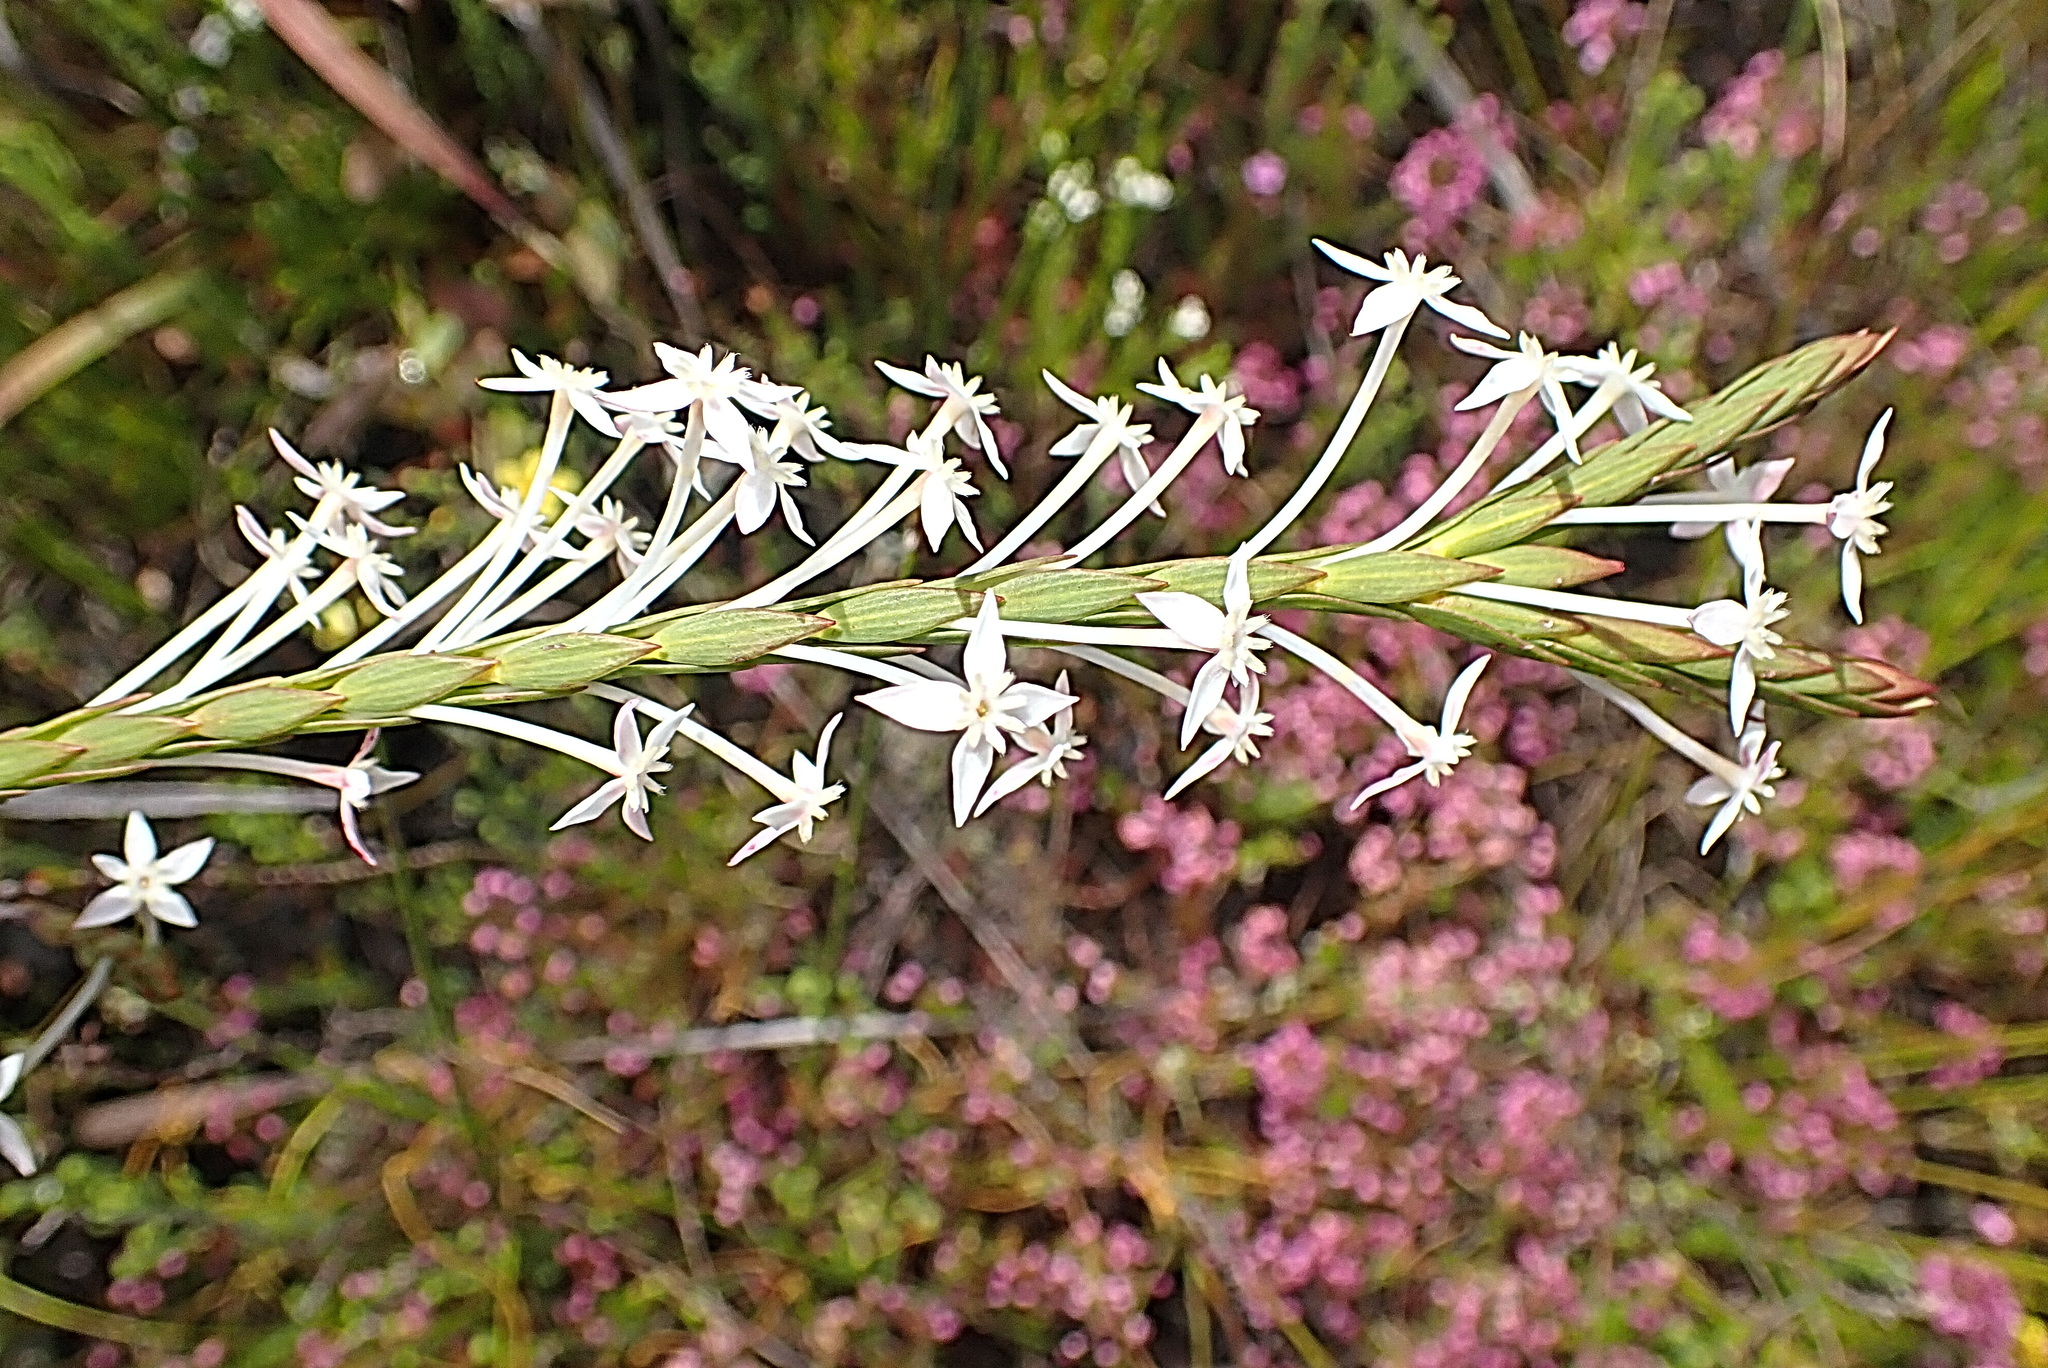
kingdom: Plantae
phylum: Tracheophyta
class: Magnoliopsida
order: Malvales
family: Thymelaeaceae
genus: Struthiola
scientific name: Struthiola myrsinites
